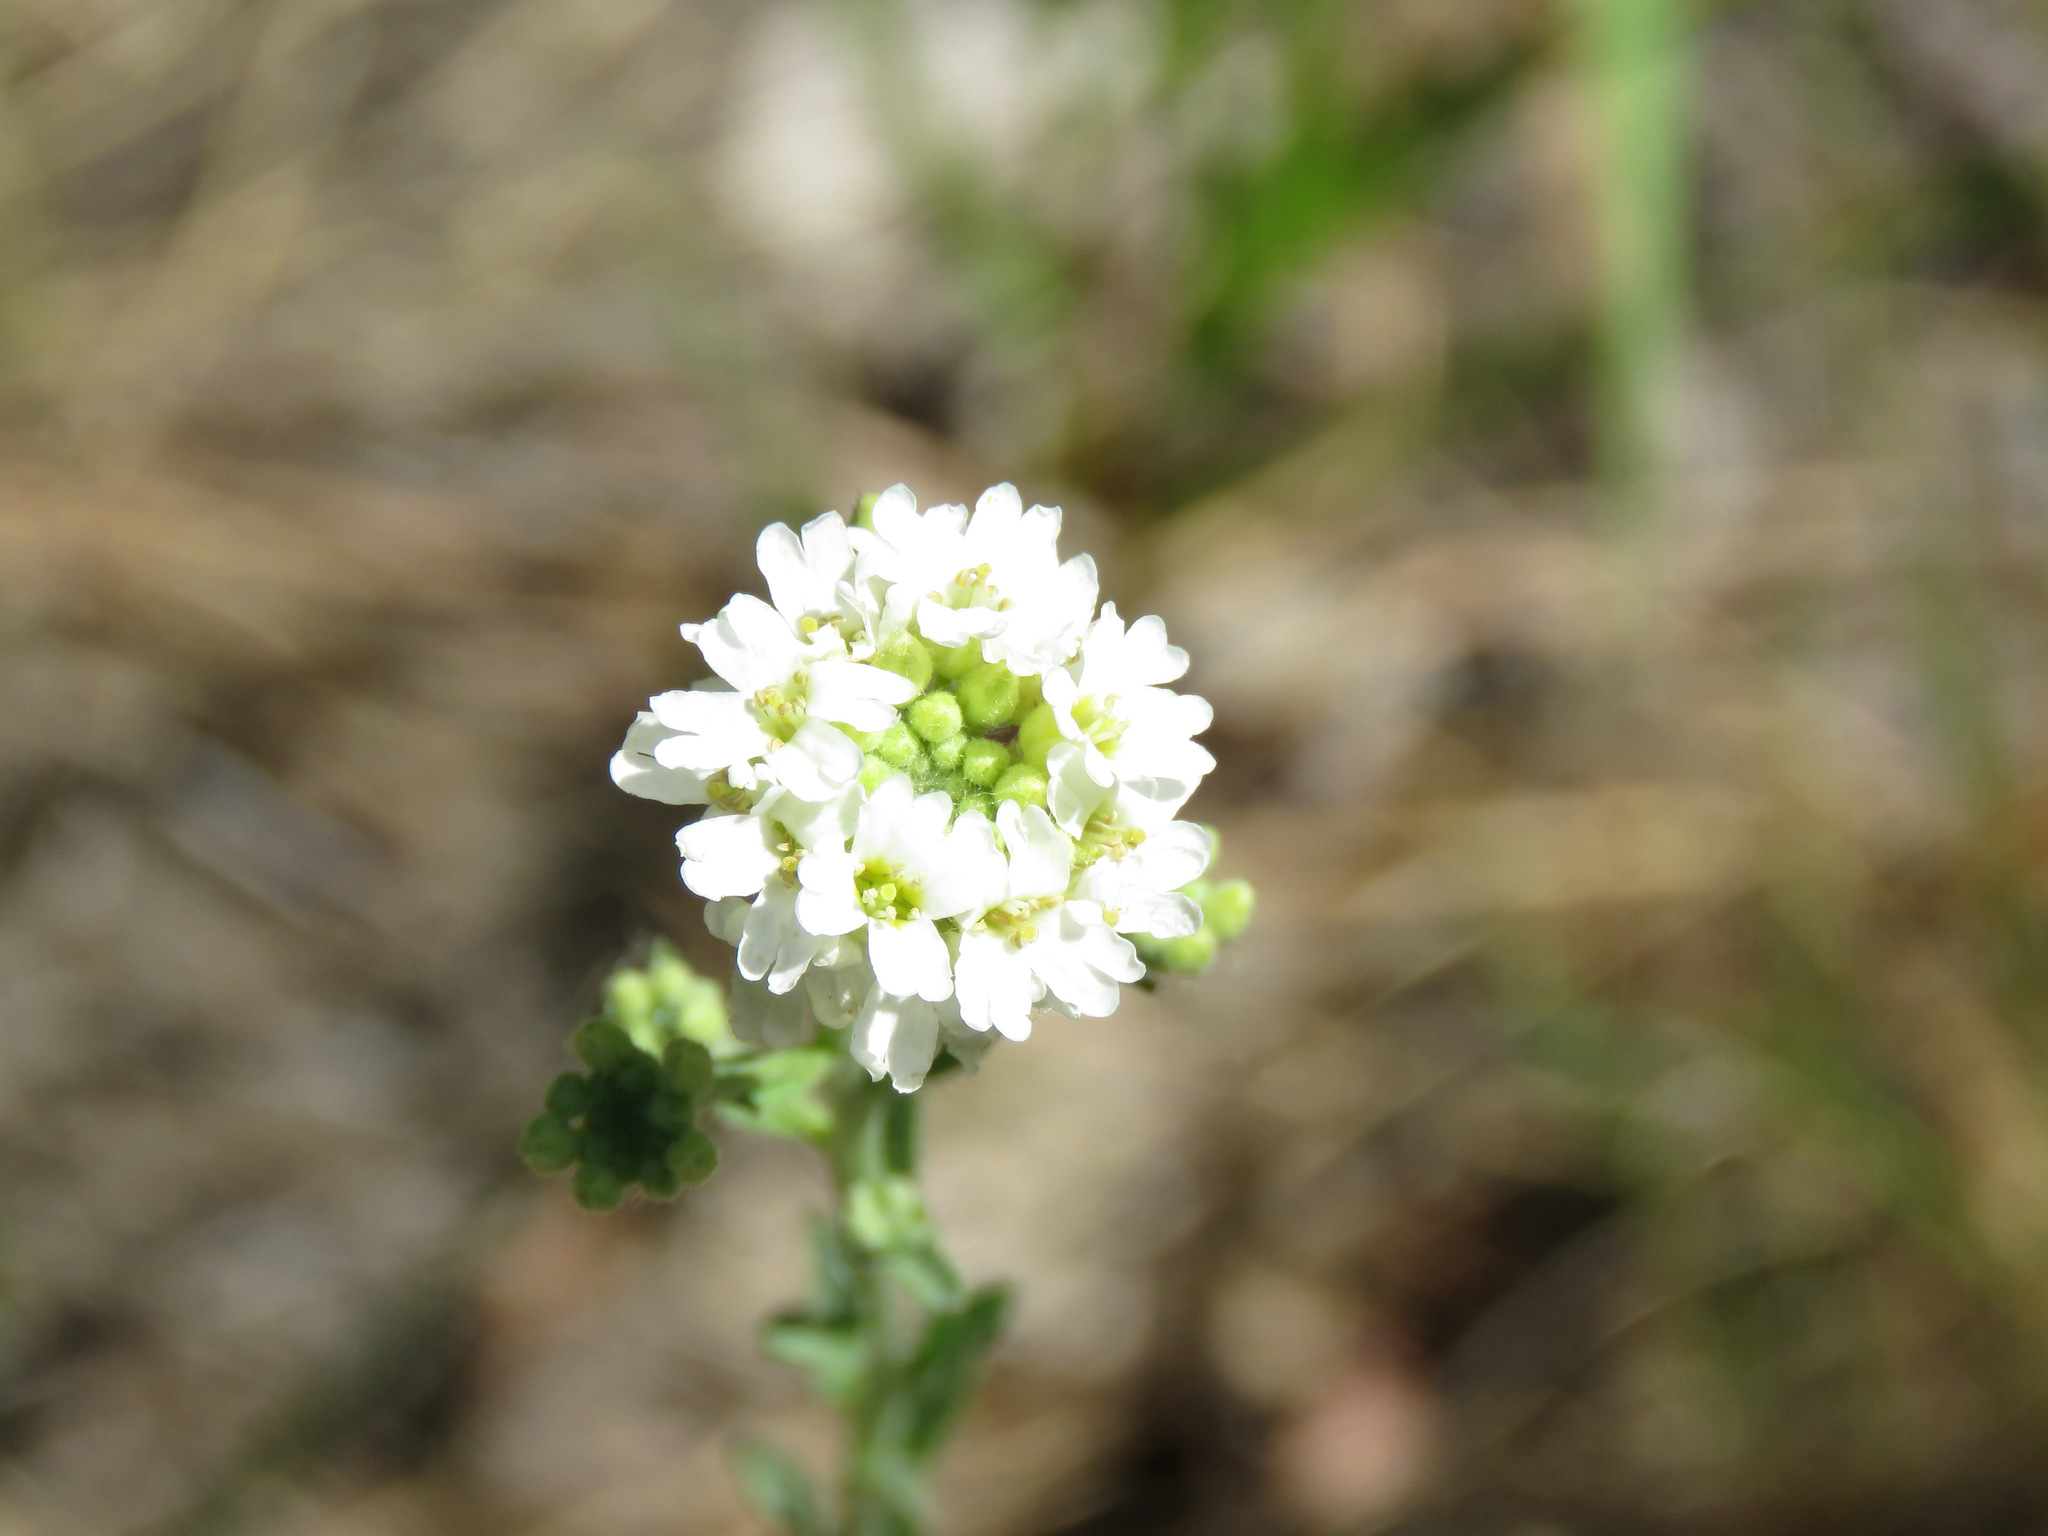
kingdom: Plantae
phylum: Tracheophyta
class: Magnoliopsida
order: Brassicales
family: Brassicaceae
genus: Berteroa
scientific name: Berteroa incana
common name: Hoary alison
